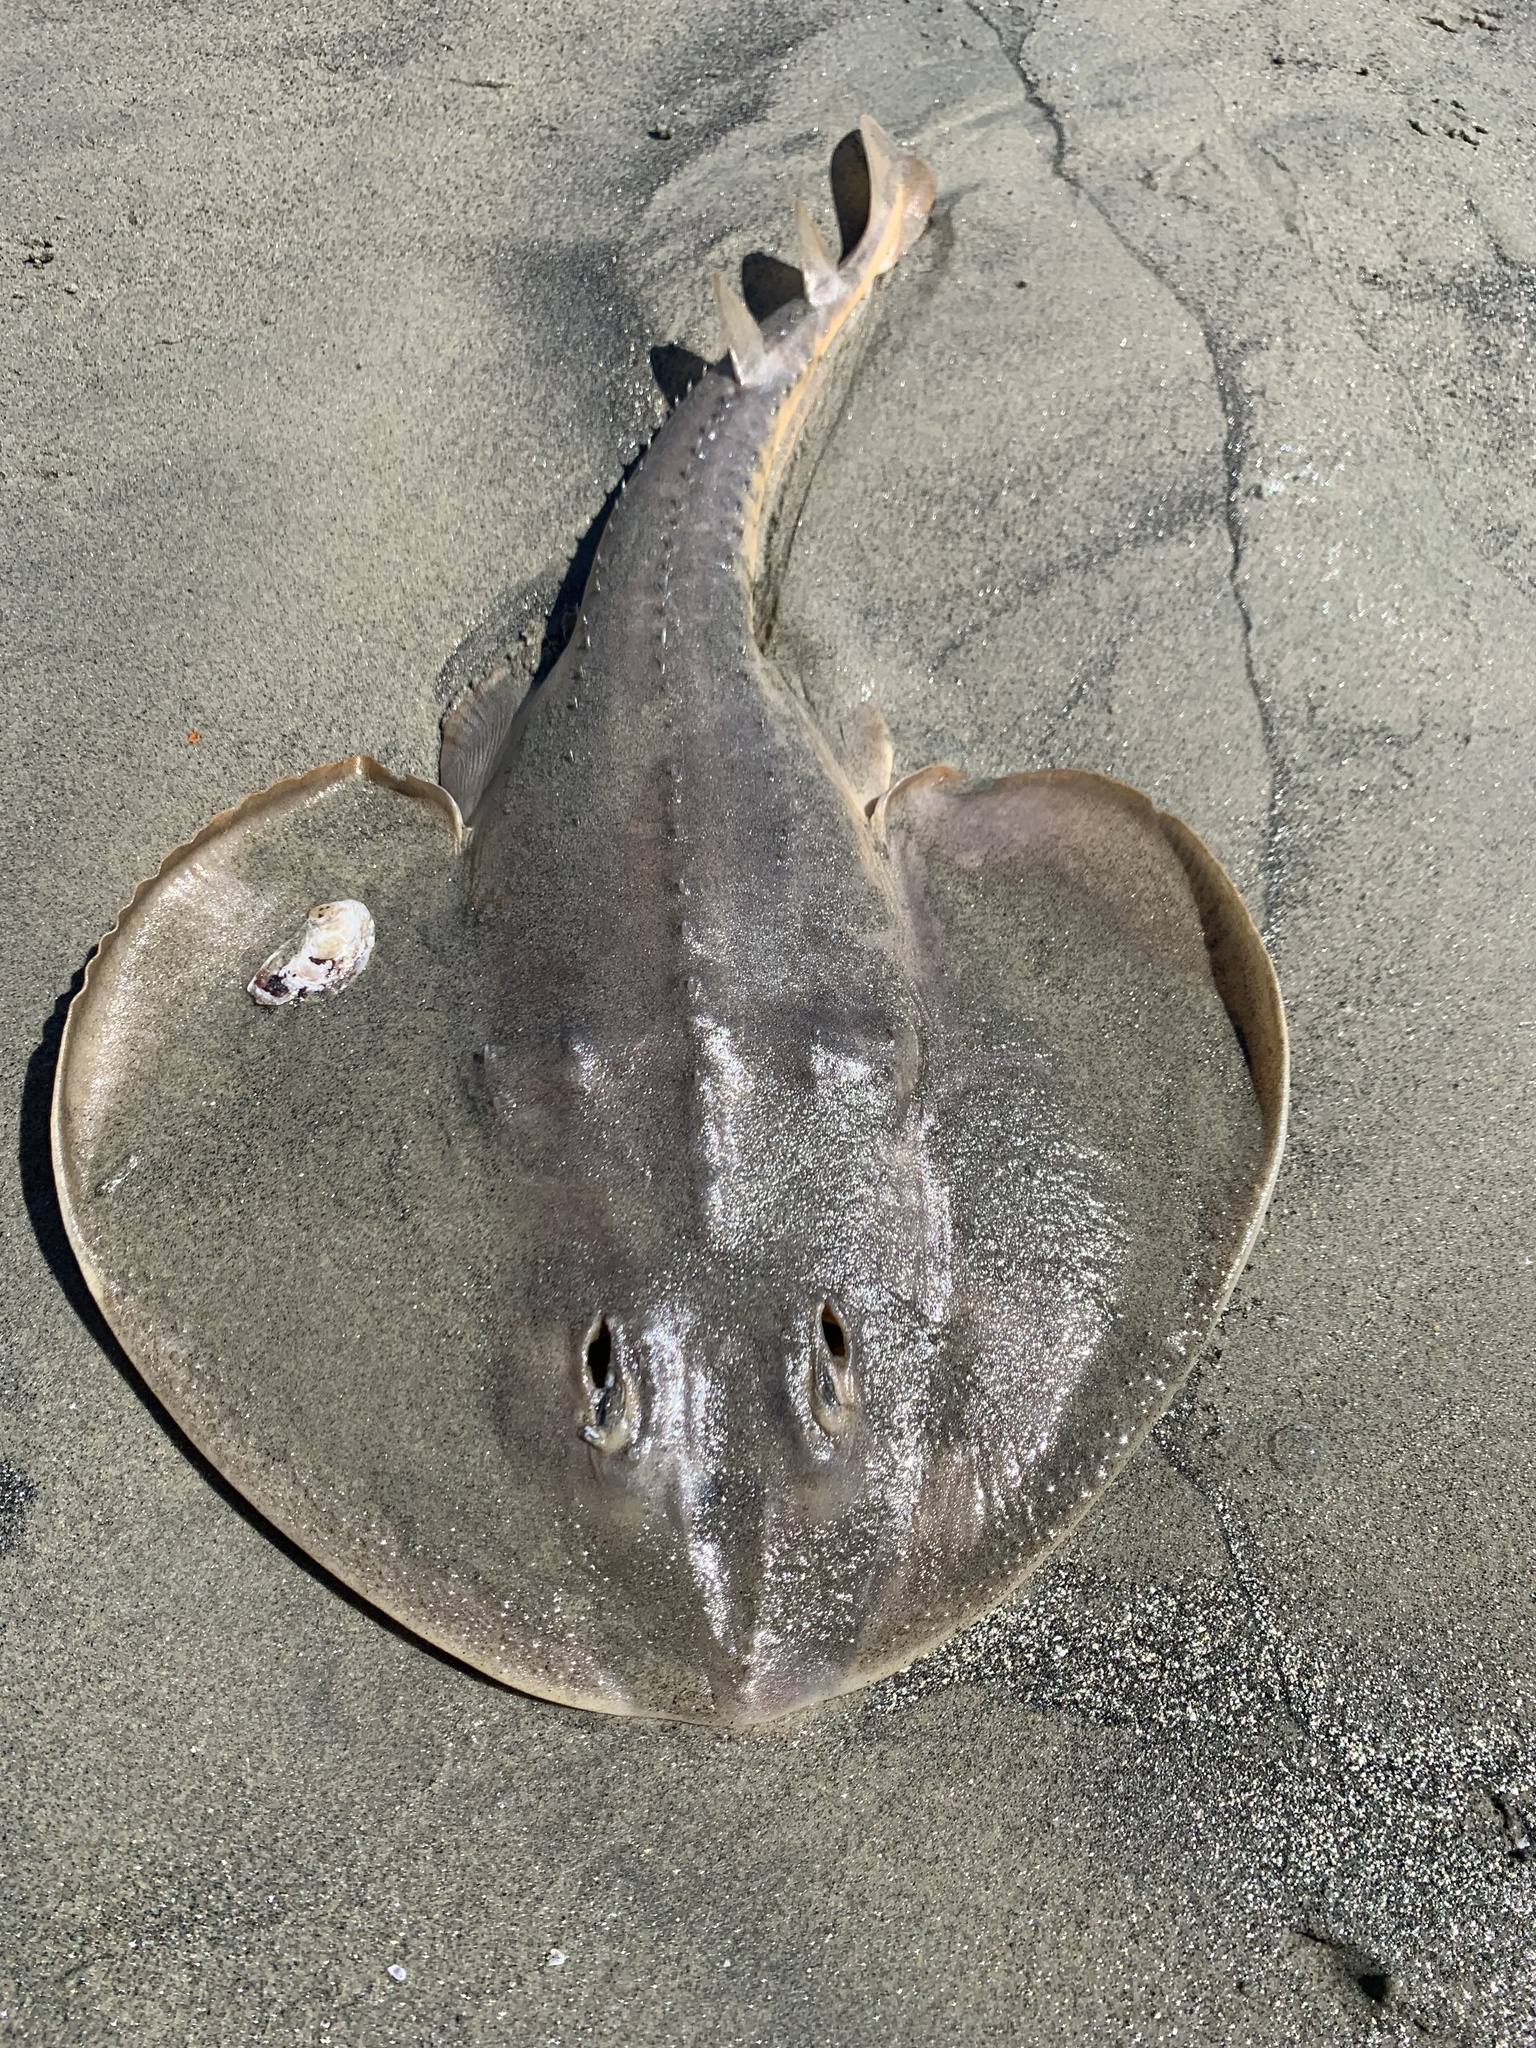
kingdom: Animalia
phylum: Chordata
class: Elasmobranchii
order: Rhinopristiformes
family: Rhinobatidae
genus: Platyrhinoidis
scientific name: Platyrhinoidis triseriata
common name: Thornback
